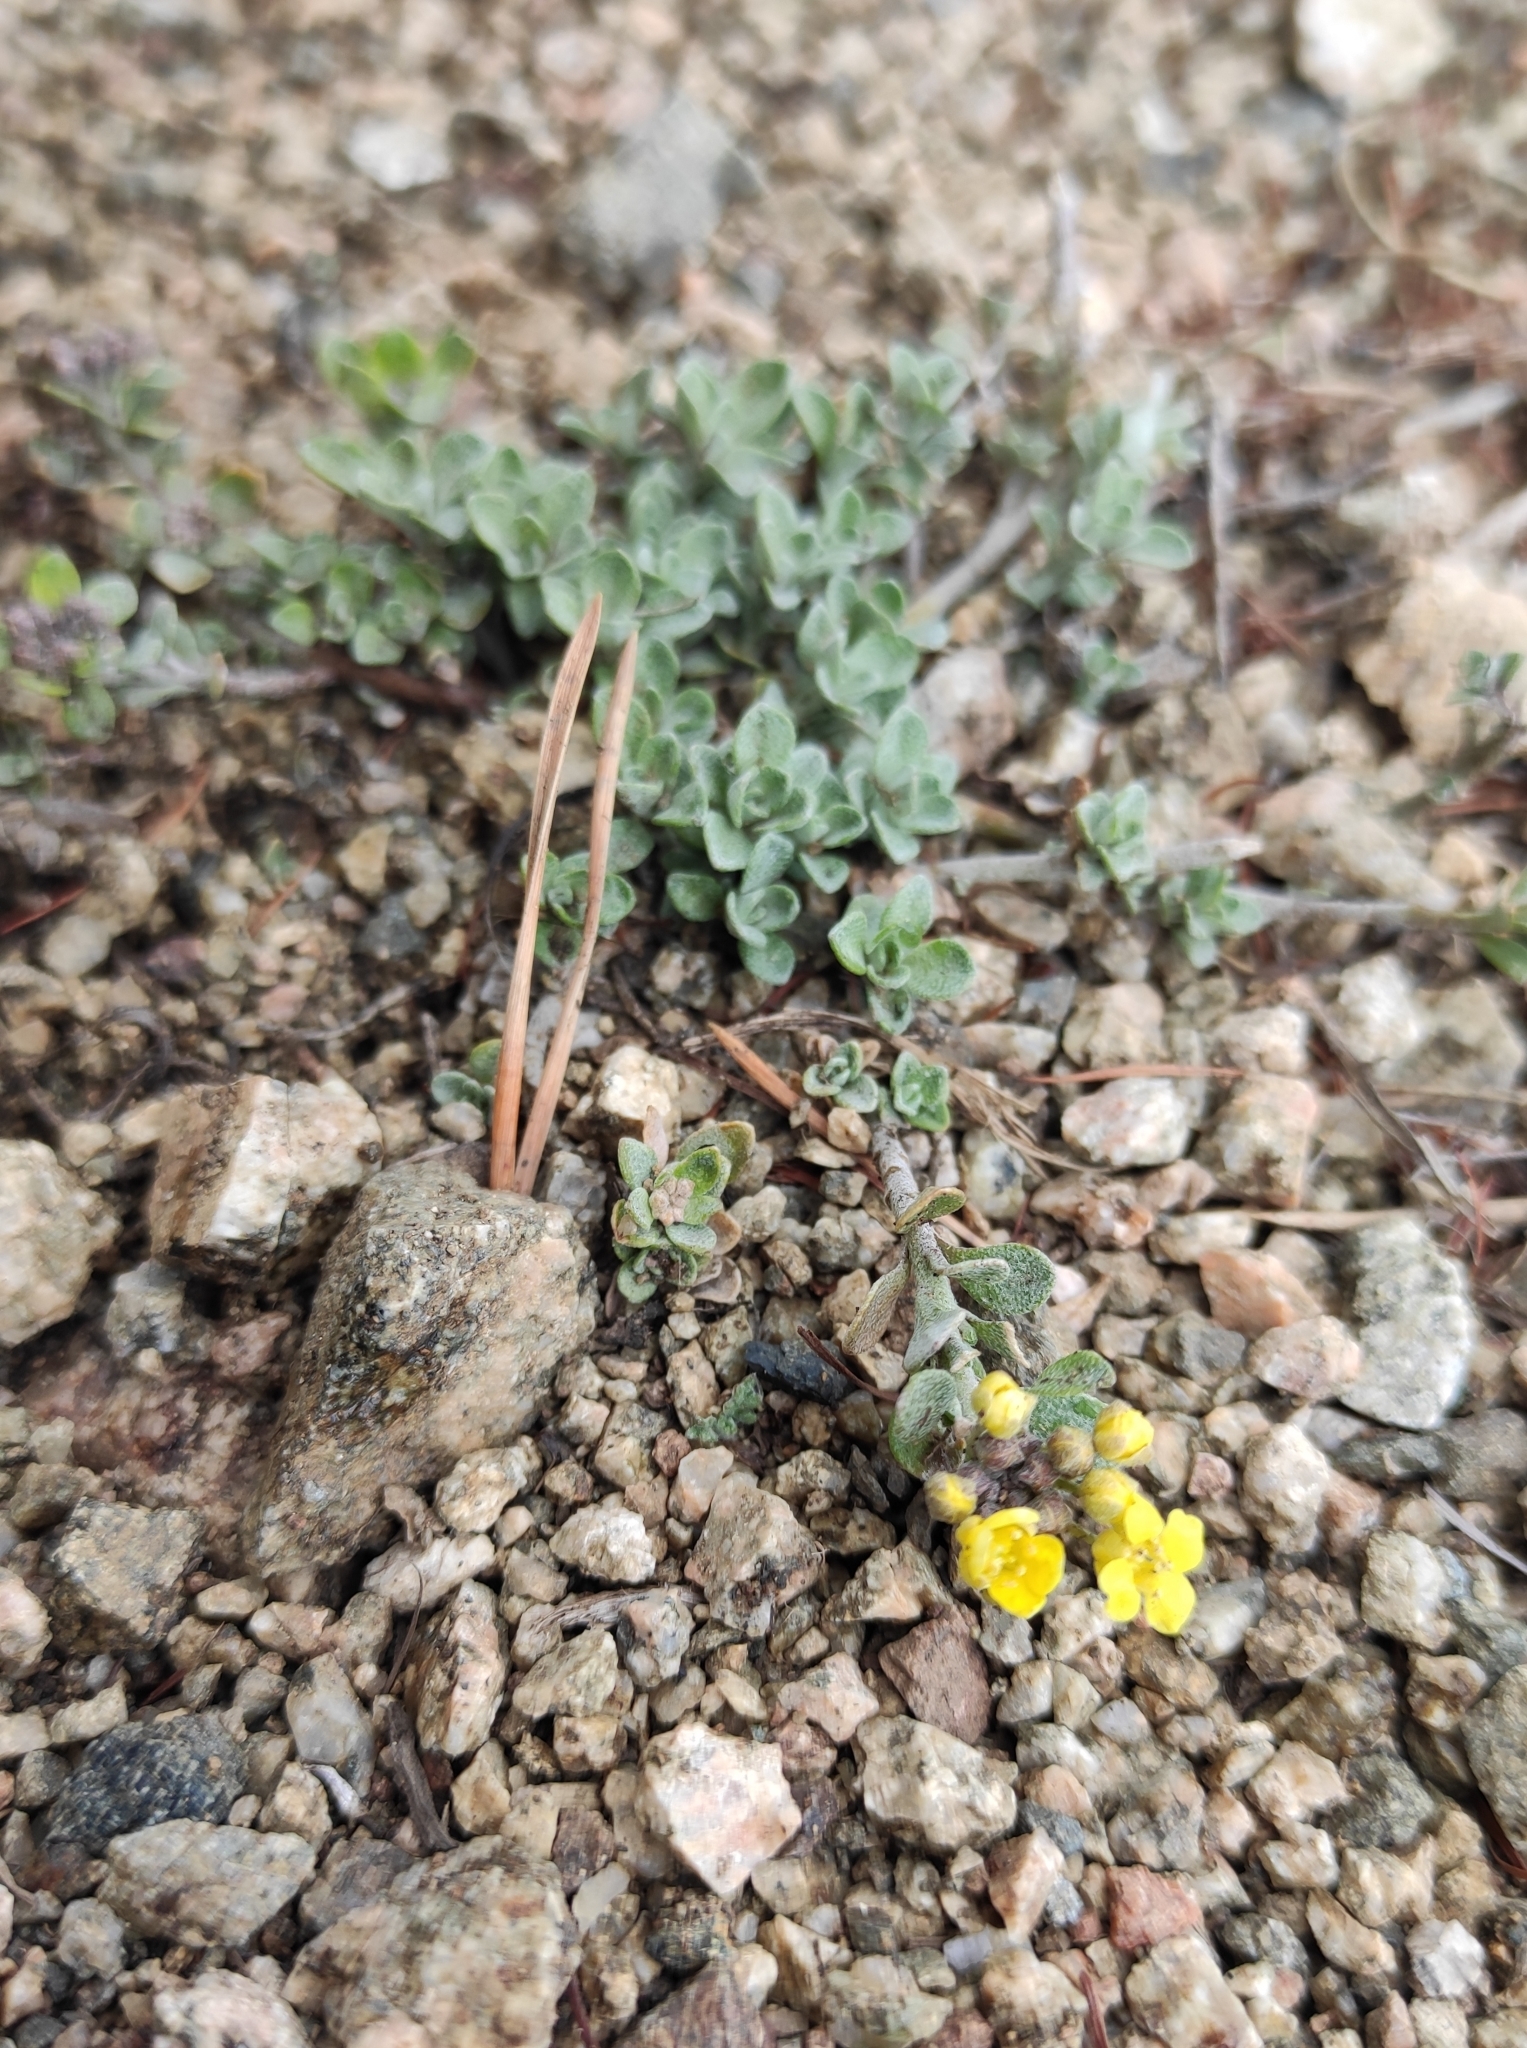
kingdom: Plantae
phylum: Tracheophyta
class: Magnoliopsida
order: Brassicales
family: Brassicaceae
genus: Odontarrhena
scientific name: Odontarrhena obovata
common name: American alyssum
